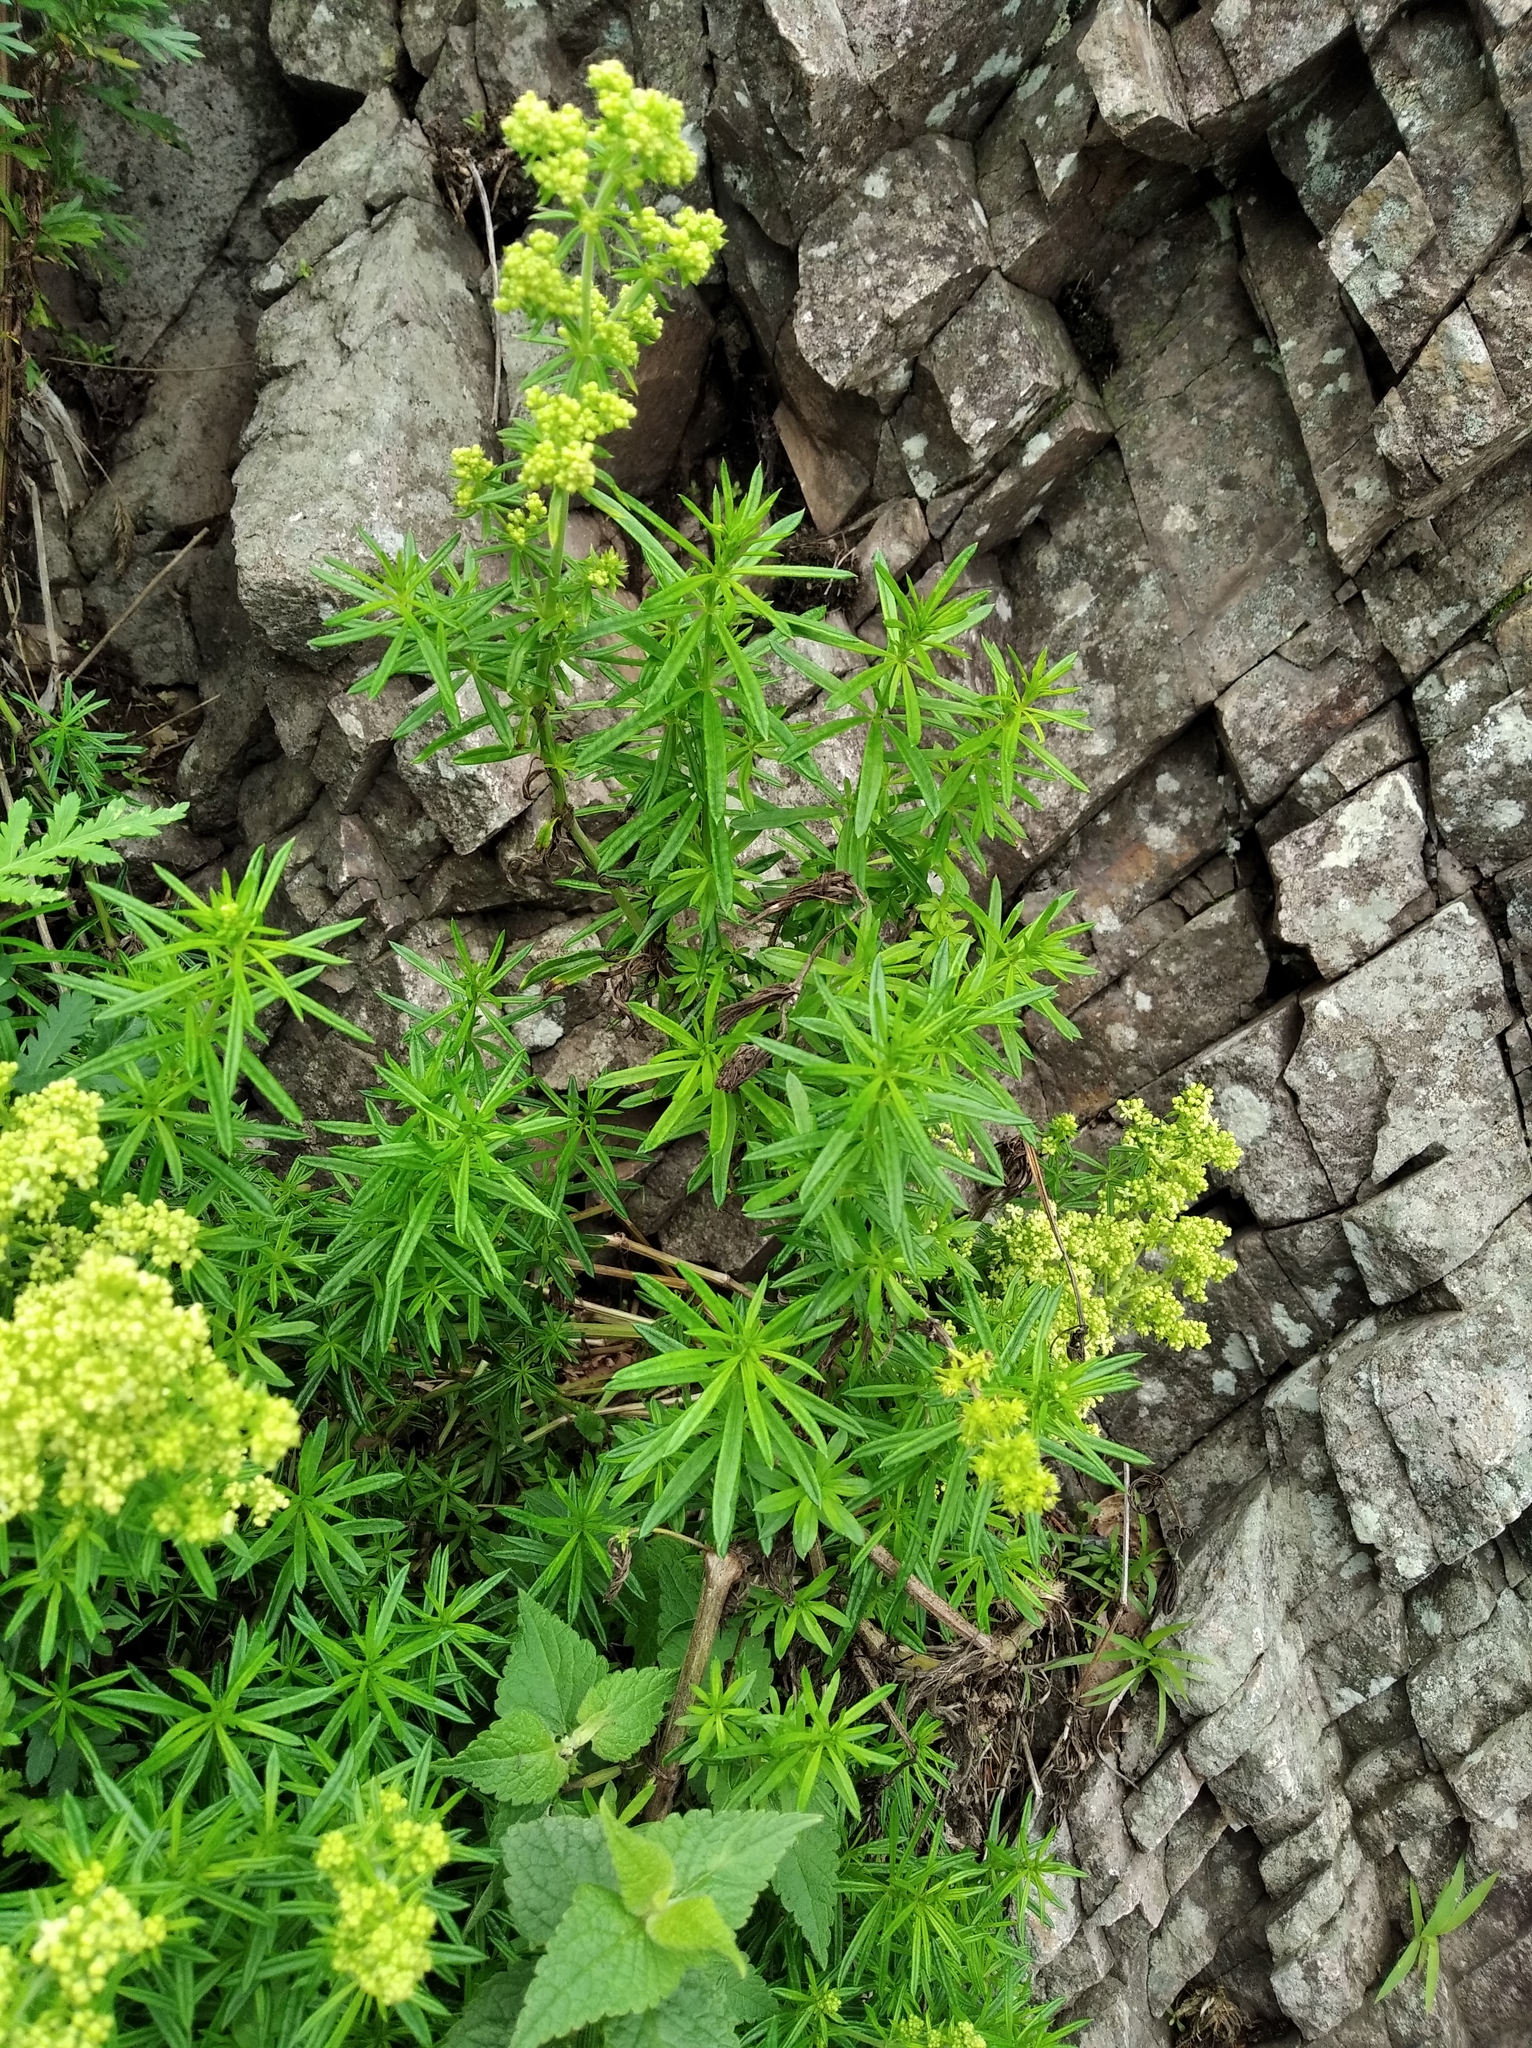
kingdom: Plantae
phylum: Tracheophyta
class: Magnoliopsida
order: Gentianales
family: Rubiaceae
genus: Galium
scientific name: Galium verum
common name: Lady's bedstraw
